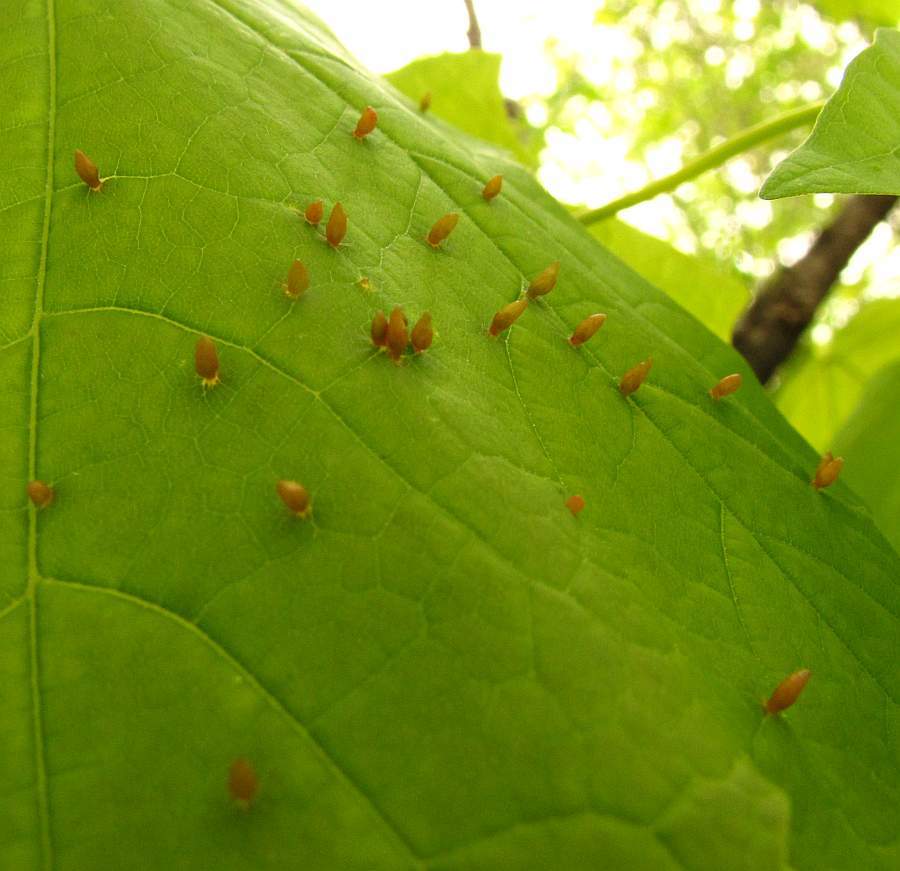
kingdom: Animalia
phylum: Arthropoda
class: Arachnida
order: Trombidiformes
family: Eriophyidae
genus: Vasates
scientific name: Vasates aceriscrumena
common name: Maple spindle gall mite
